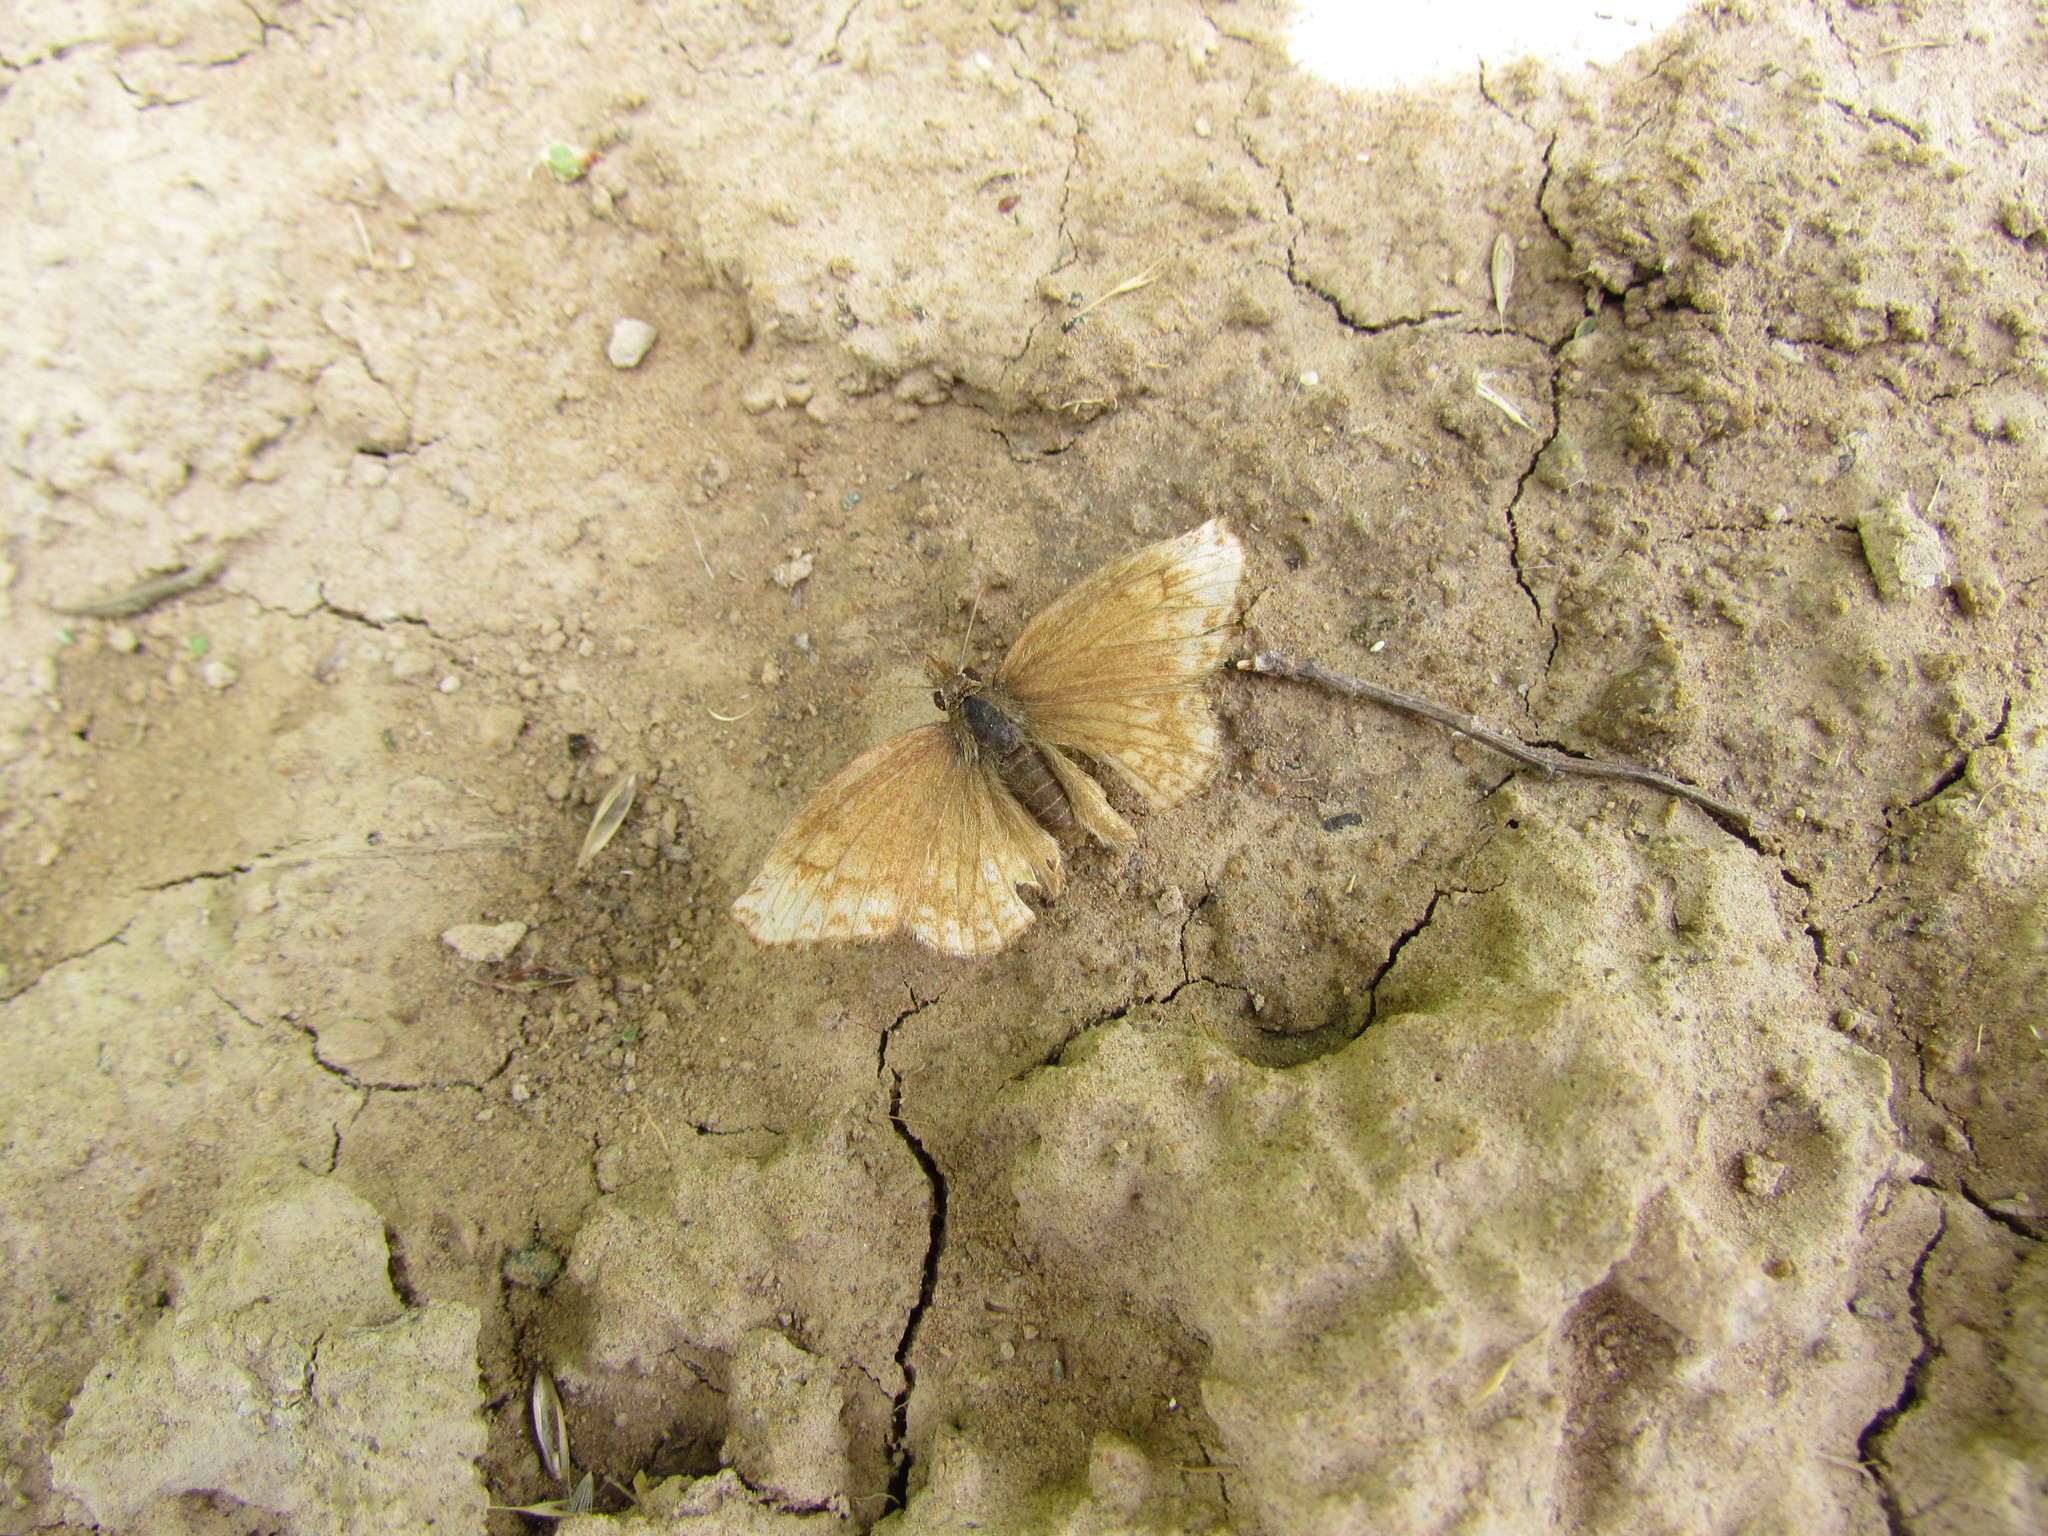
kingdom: Animalia
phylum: Arthropoda
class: Insecta
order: Lepidoptera
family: Hesperiidae
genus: Anisochoria
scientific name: Anisochoria sublimbata
